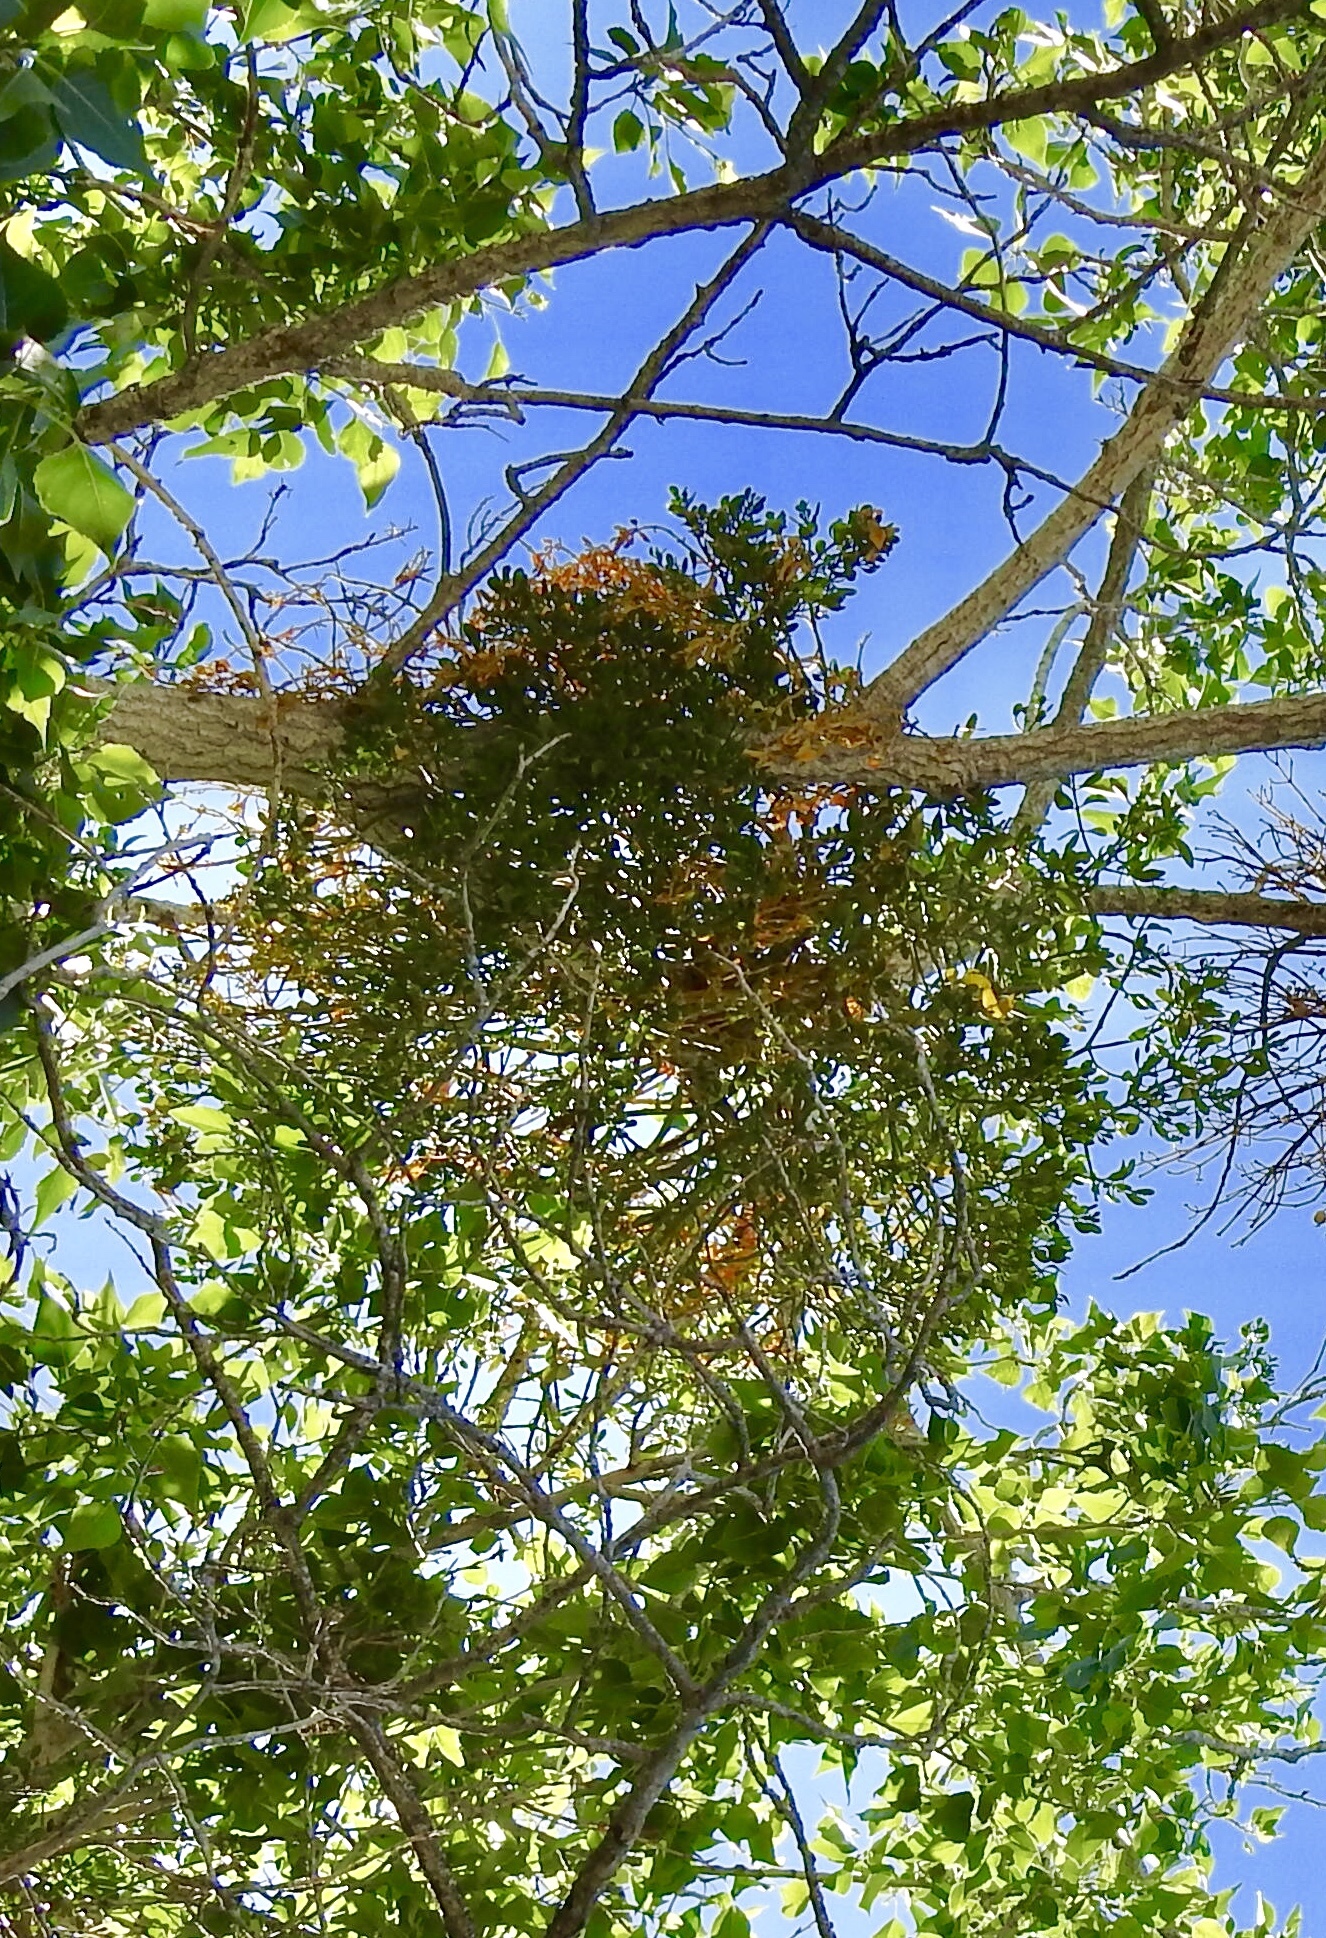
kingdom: Plantae
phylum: Tracheophyta
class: Magnoliopsida
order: Santalales
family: Viscaceae
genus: Phoradendron
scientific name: Phoradendron
